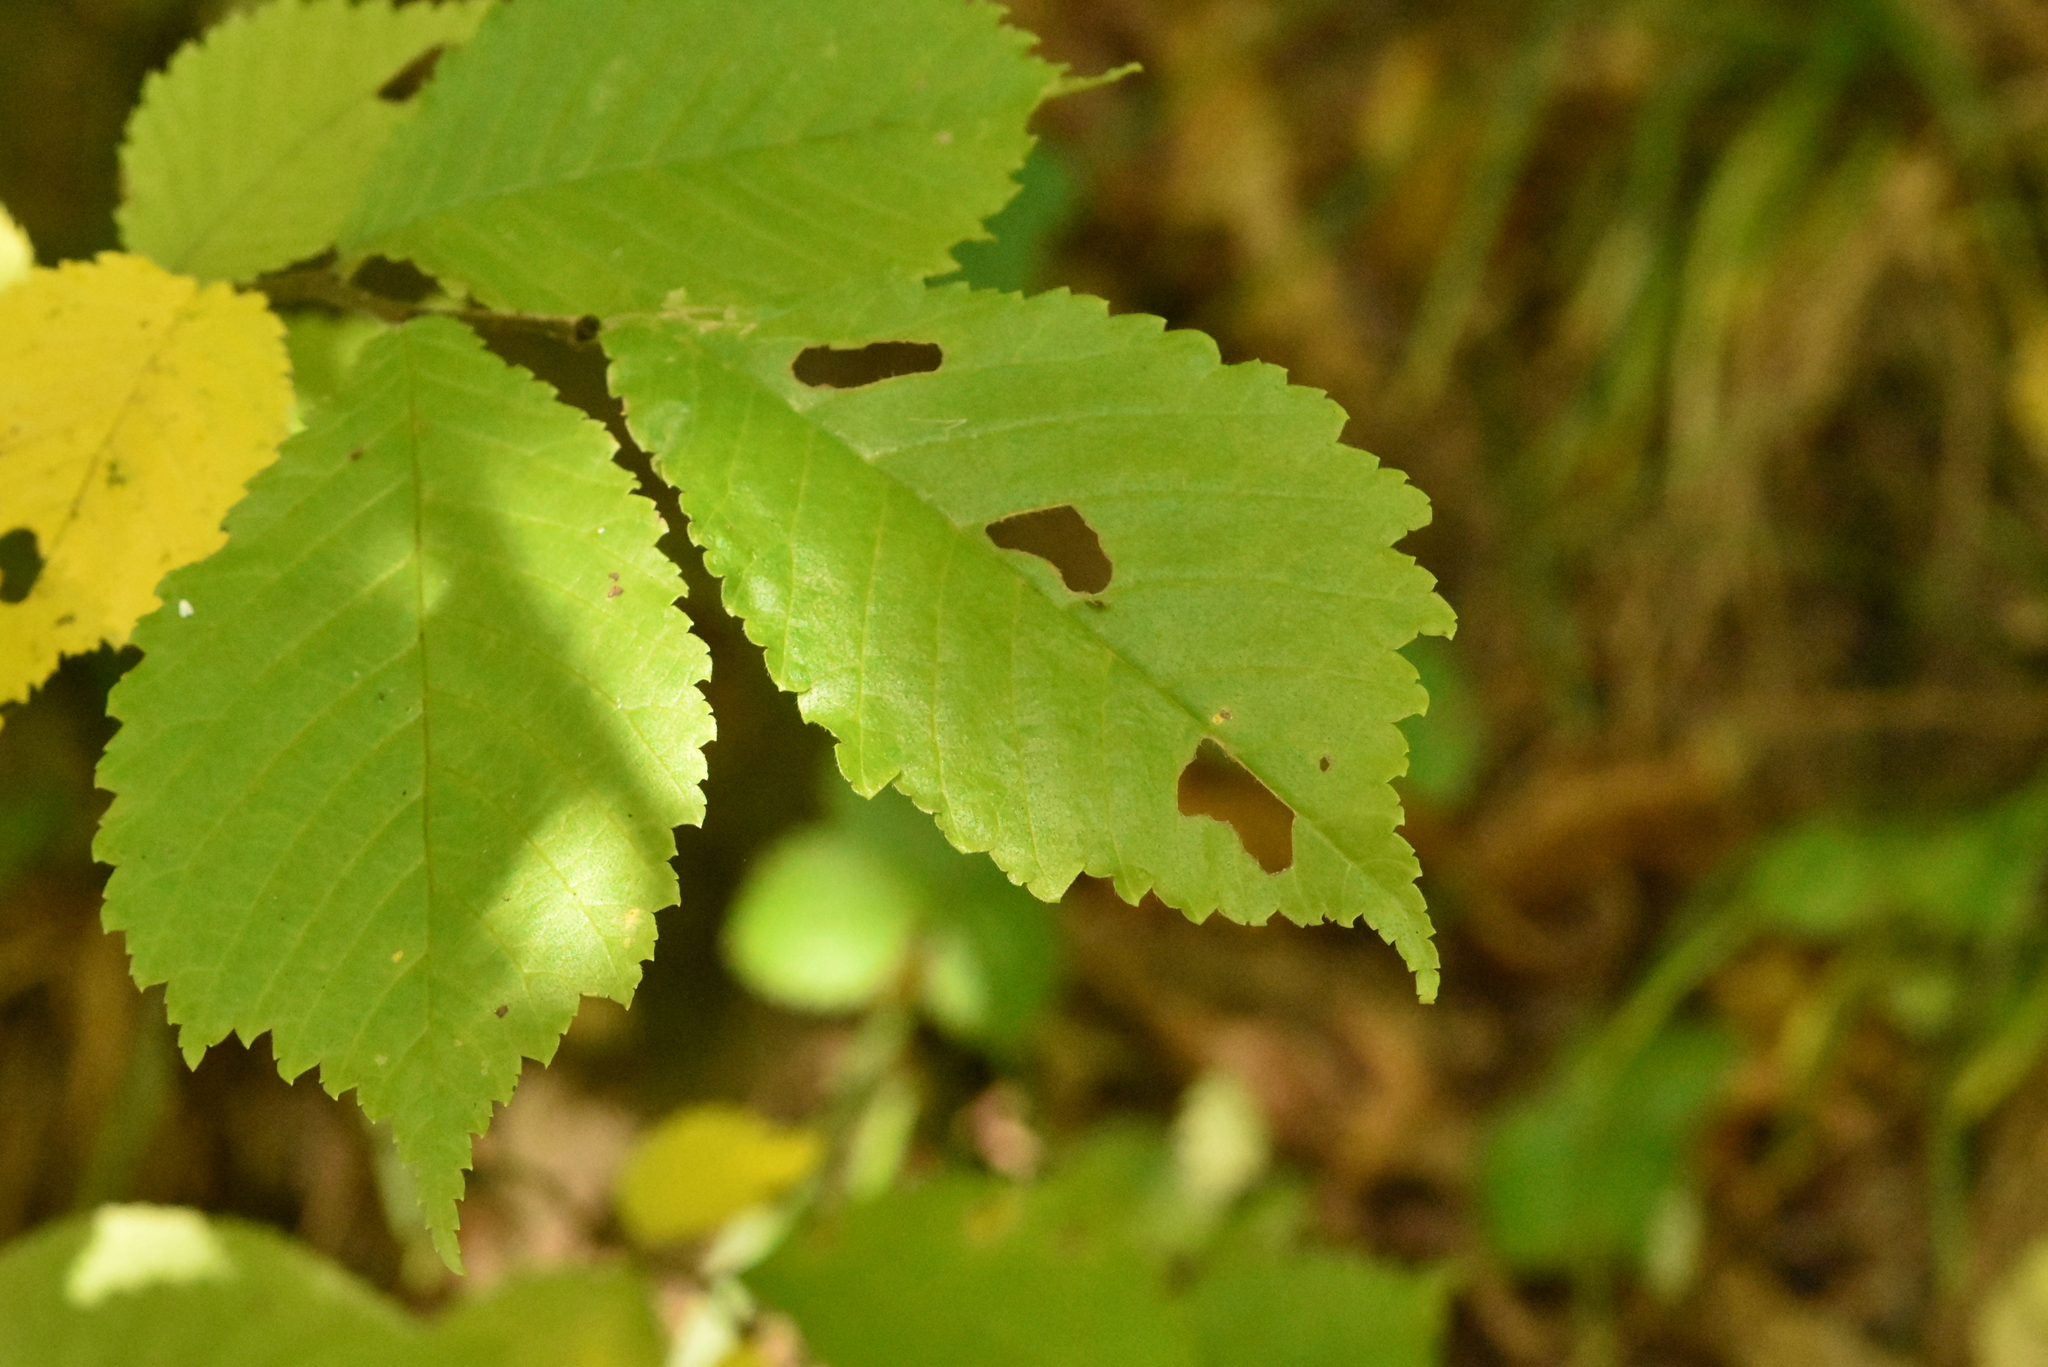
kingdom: Plantae
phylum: Tracheophyta
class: Magnoliopsida
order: Rosales
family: Ulmaceae
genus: Ulmus
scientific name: Ulmus glabra
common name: Wych elm
